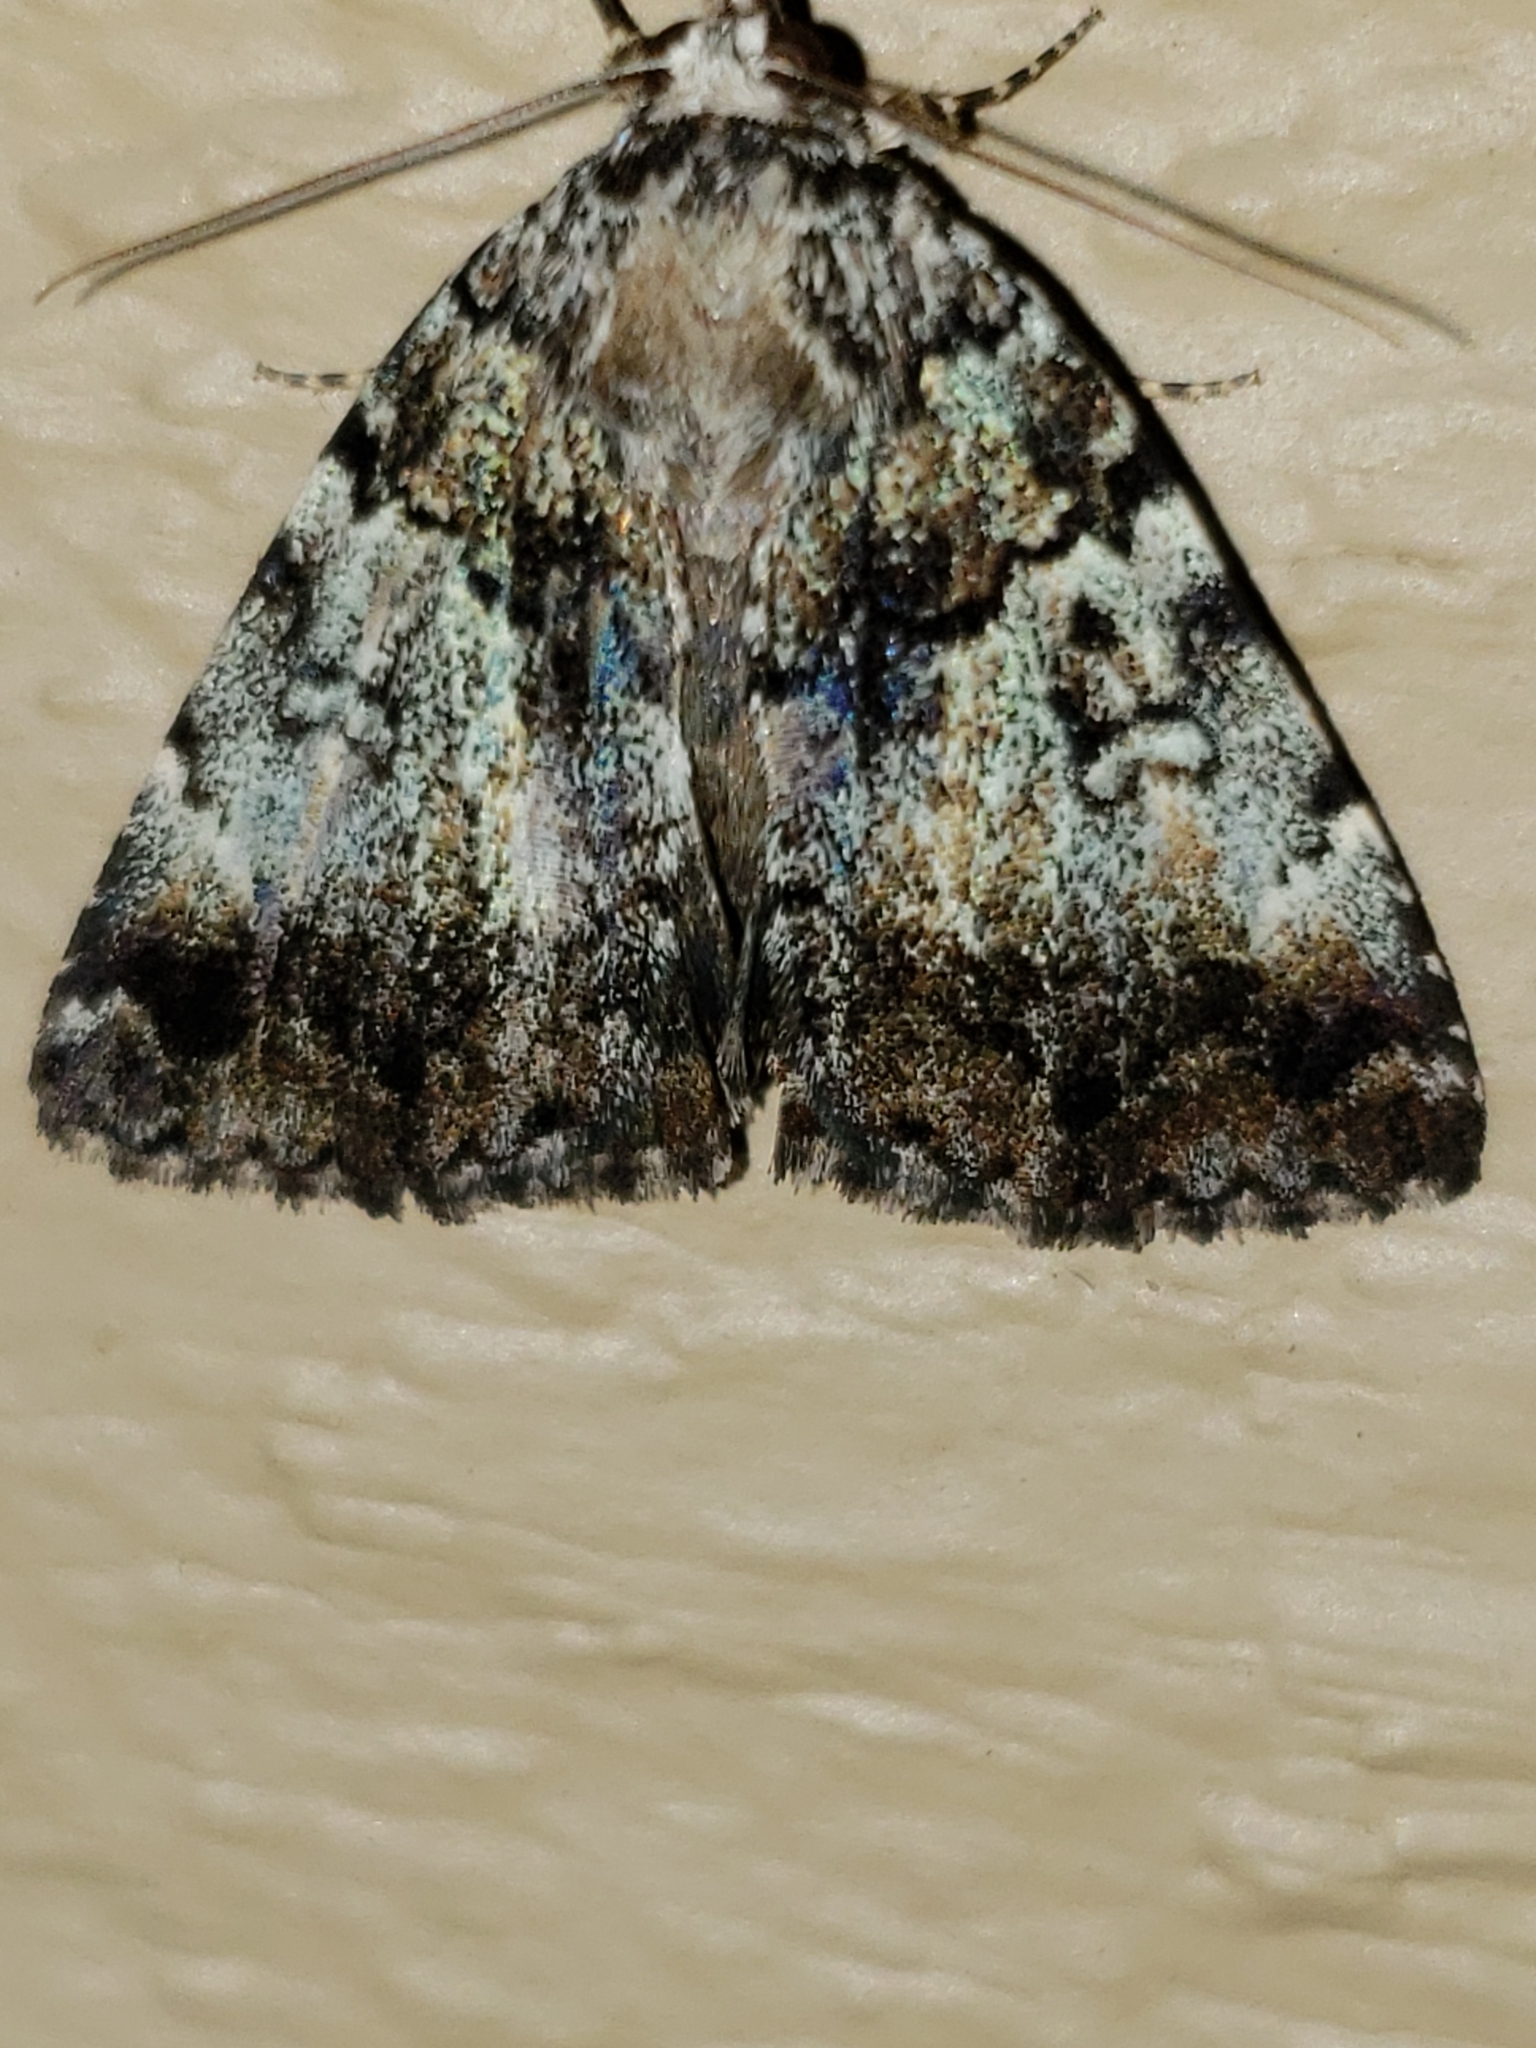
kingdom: Animalia
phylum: Arthropoda
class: Insecta
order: Lepidoptera
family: Erebidae
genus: Allotria
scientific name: Allotria elonympha
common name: False underwing
